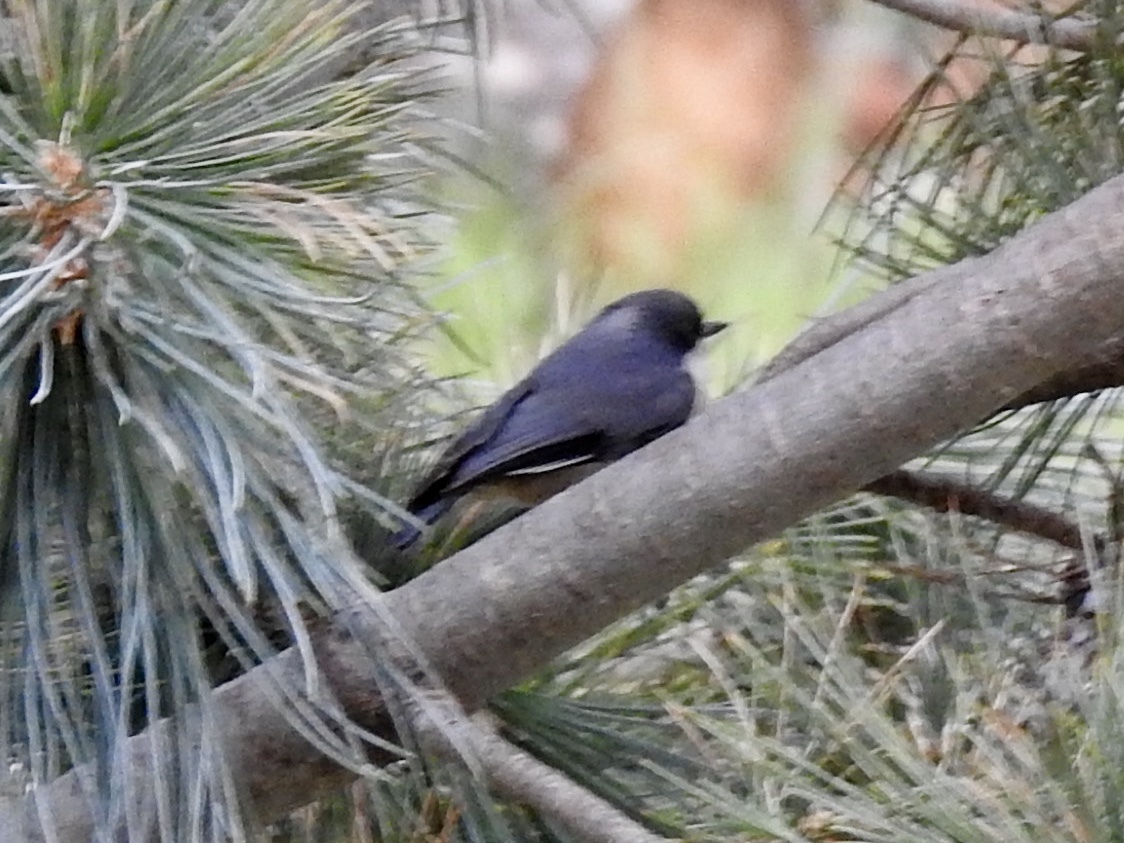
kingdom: Animalia
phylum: Chordata
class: Aves
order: Passeriformes
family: Sittidae
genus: Sitta
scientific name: Sitta pygmaea
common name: Pygmy nuthatch
